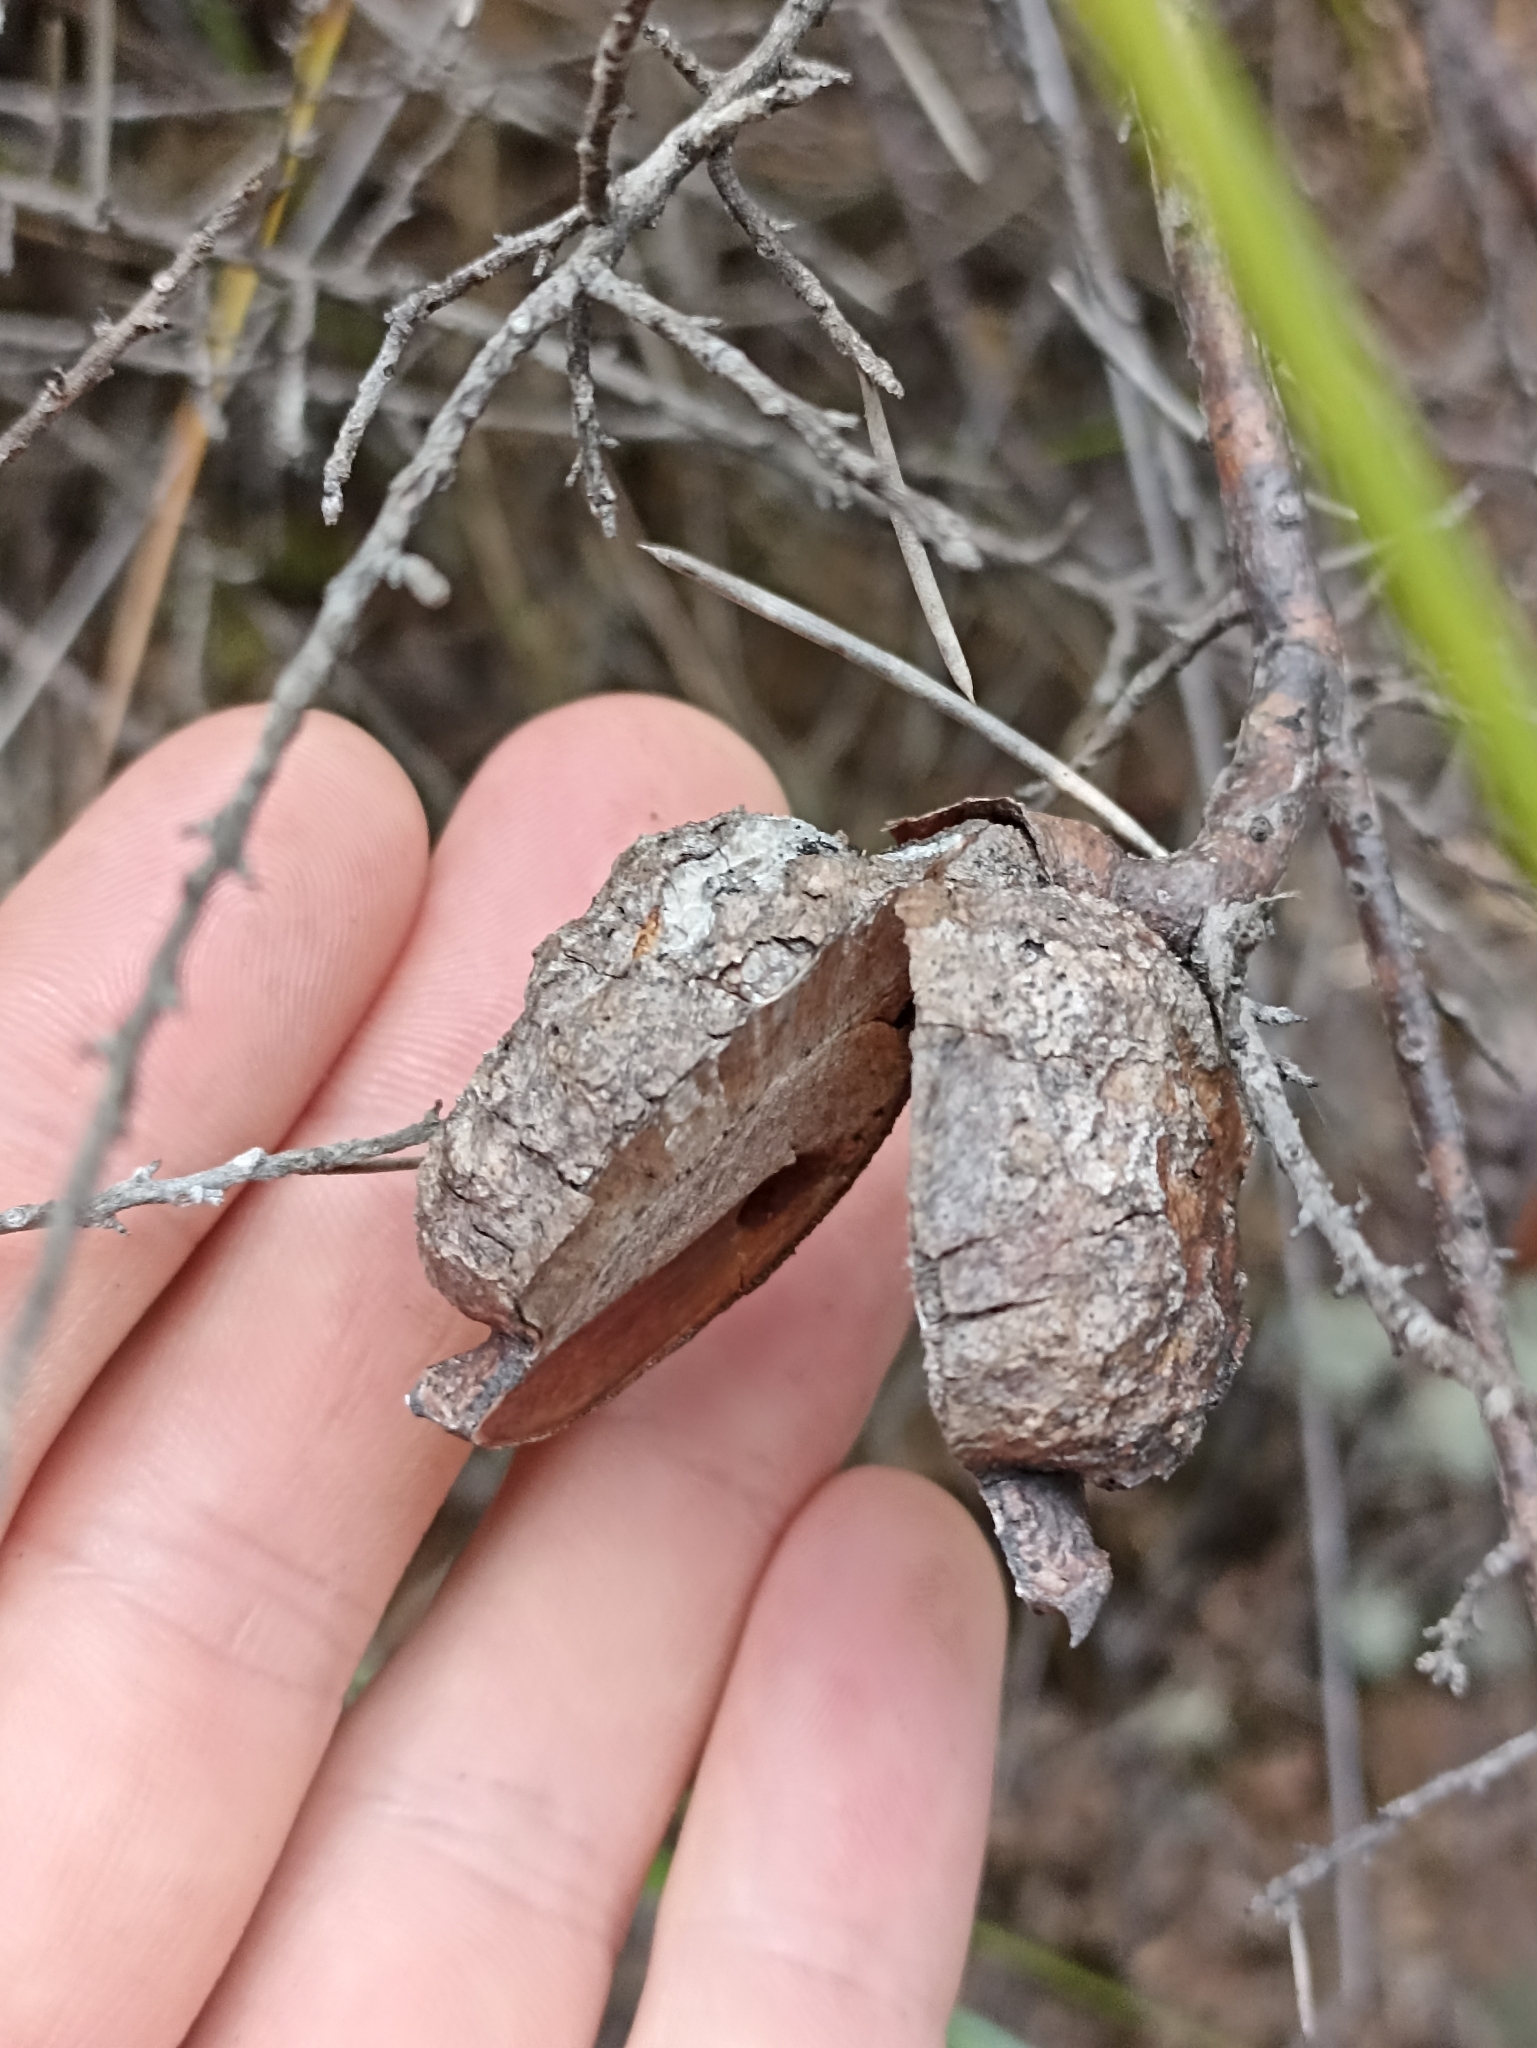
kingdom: Plantae
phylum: Tracheophyta
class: Magnoliopsida
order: Proteales
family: Proteaceae
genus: Hakea
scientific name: Hakea sericea
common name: Needle bush
